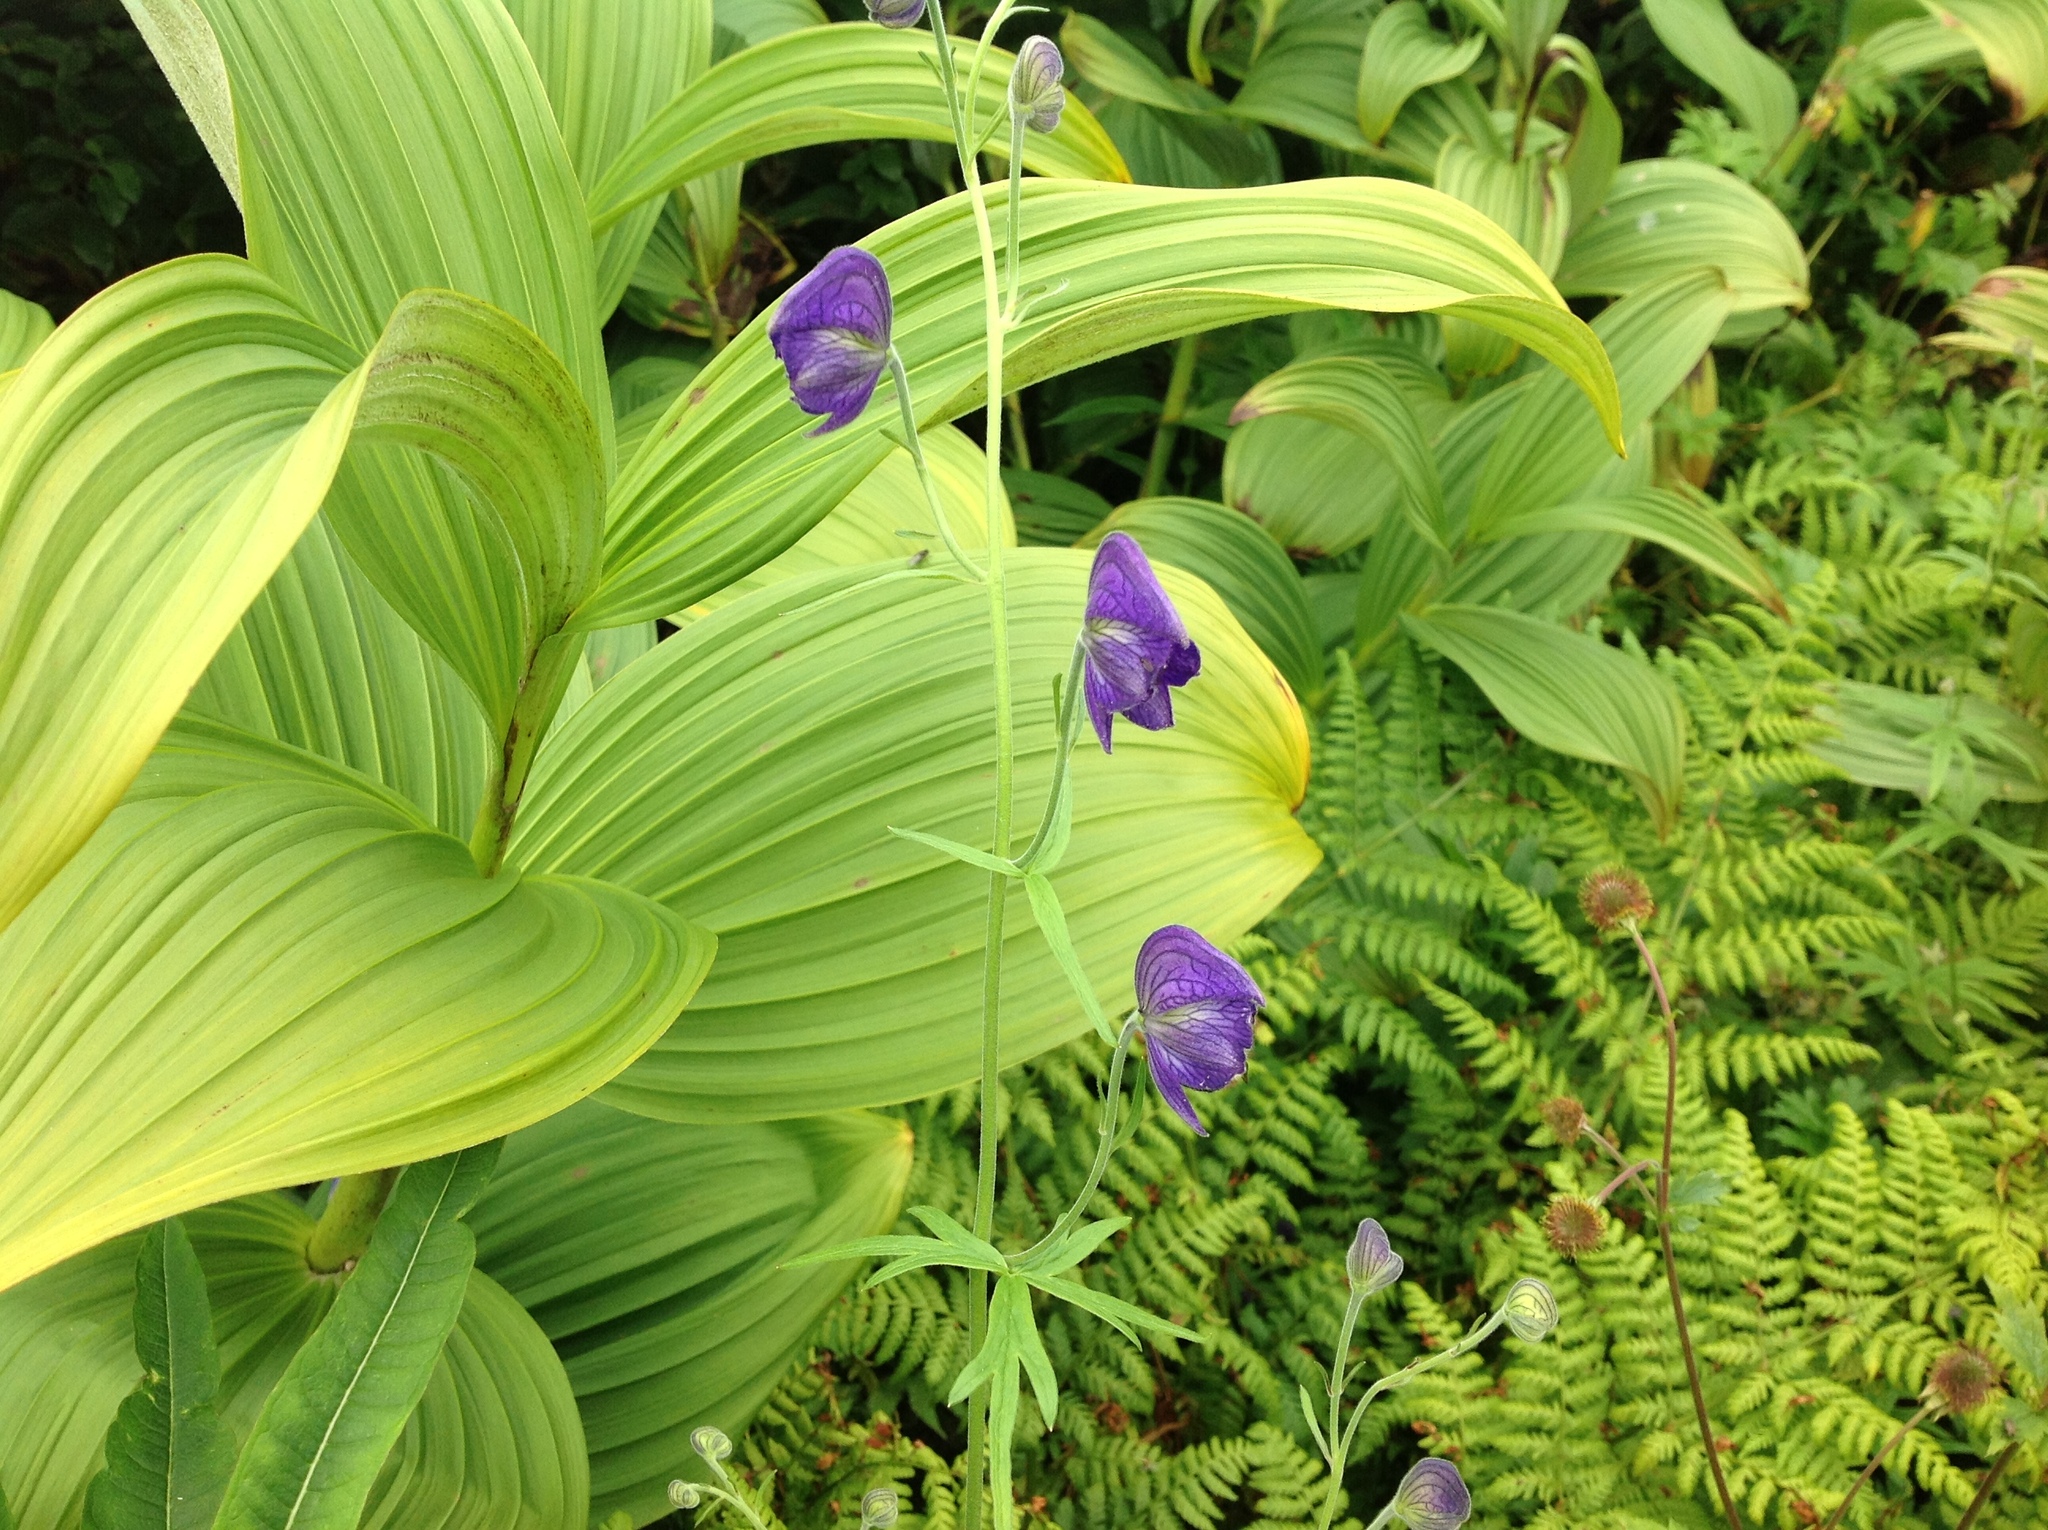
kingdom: Plantae
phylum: Tracheophyta
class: Magnoliopsida
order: Ranunculales
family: Ranunculaceae
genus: Aconitum
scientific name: Aconitum delphiniifolium
